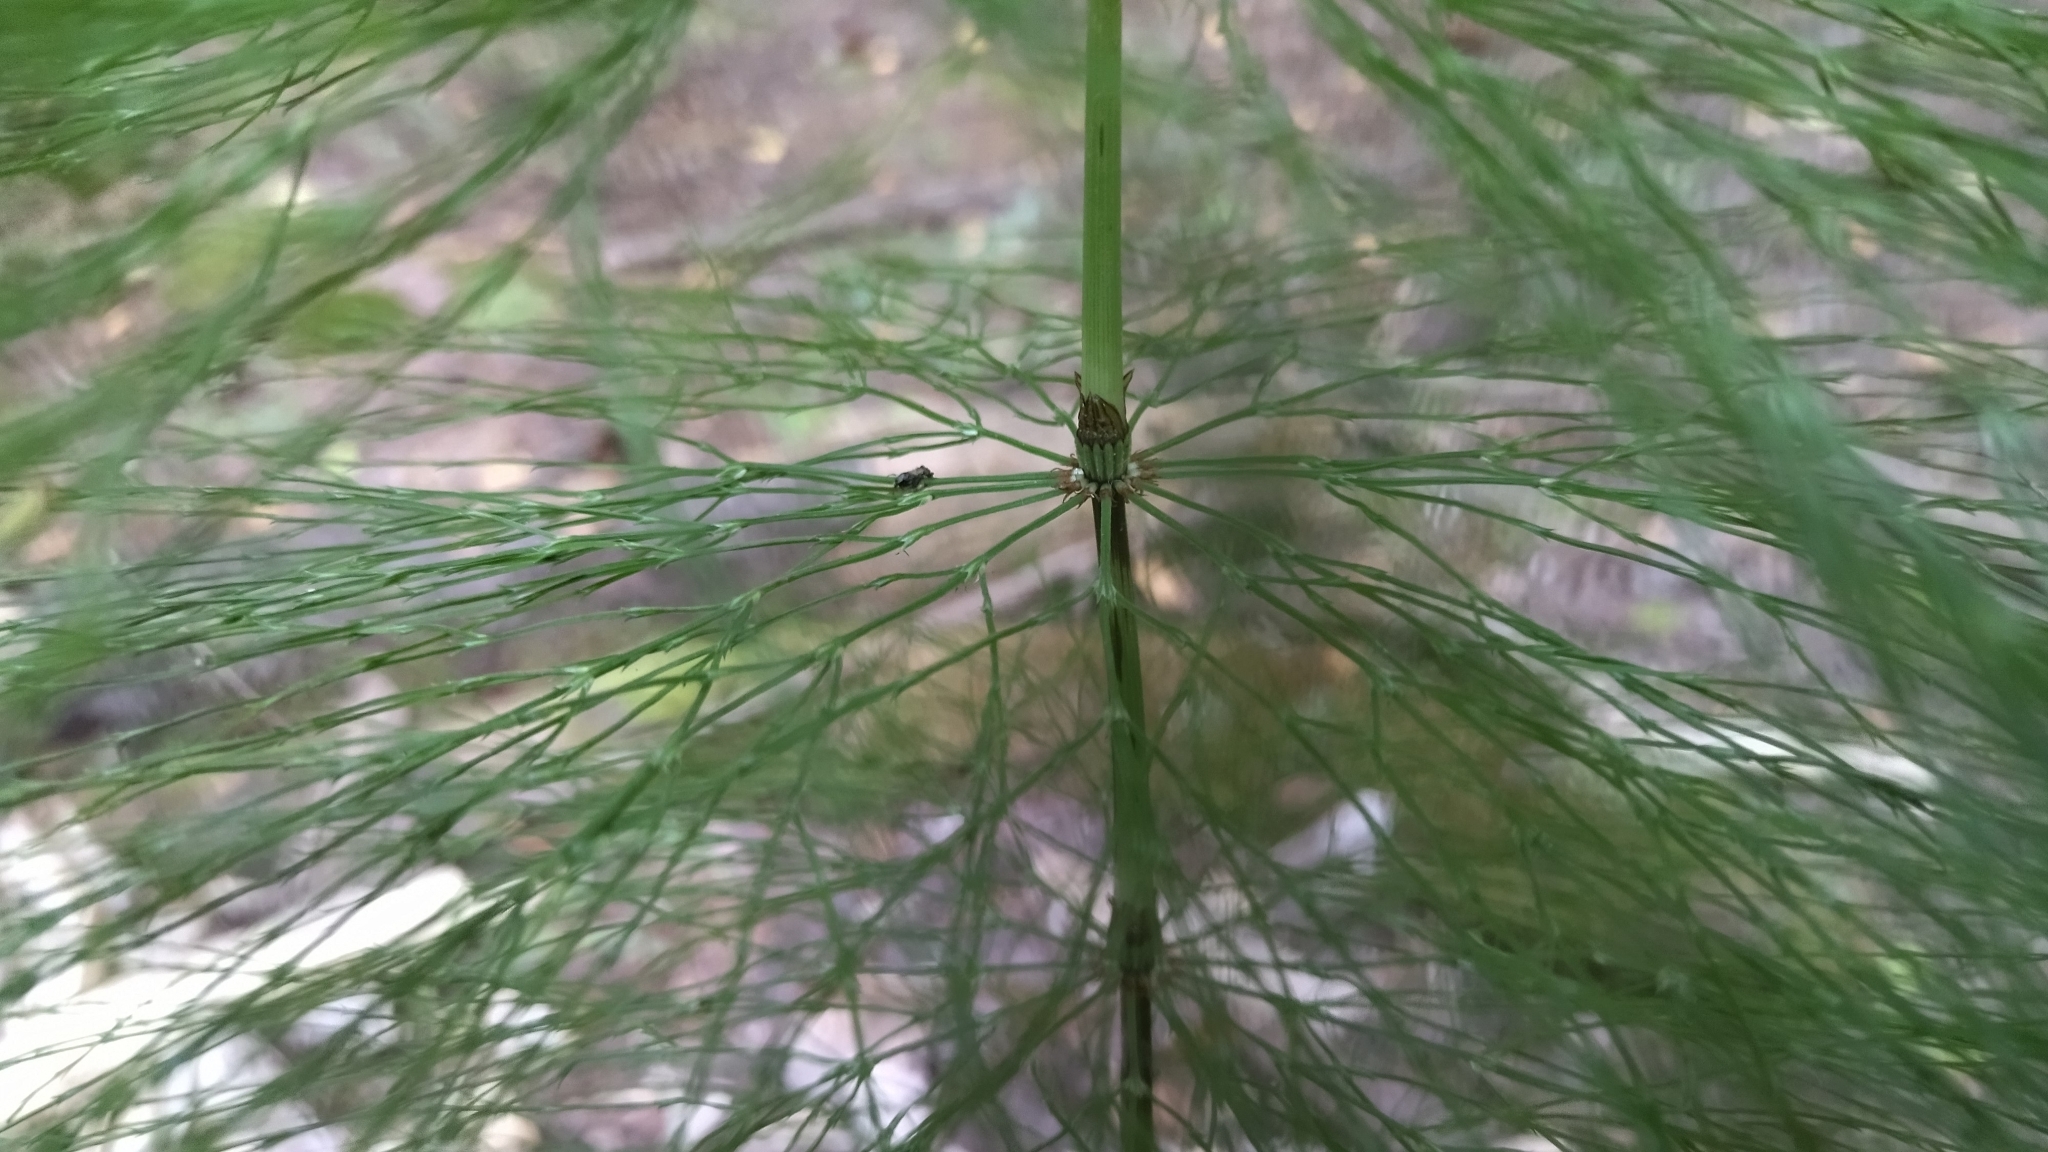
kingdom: Plantae
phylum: Tracheophyta
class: Polypodiopsida
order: Equisetales
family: Equisetaceae
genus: Equisetum
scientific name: Equisetum sylvaticum
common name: Wood horsetail
